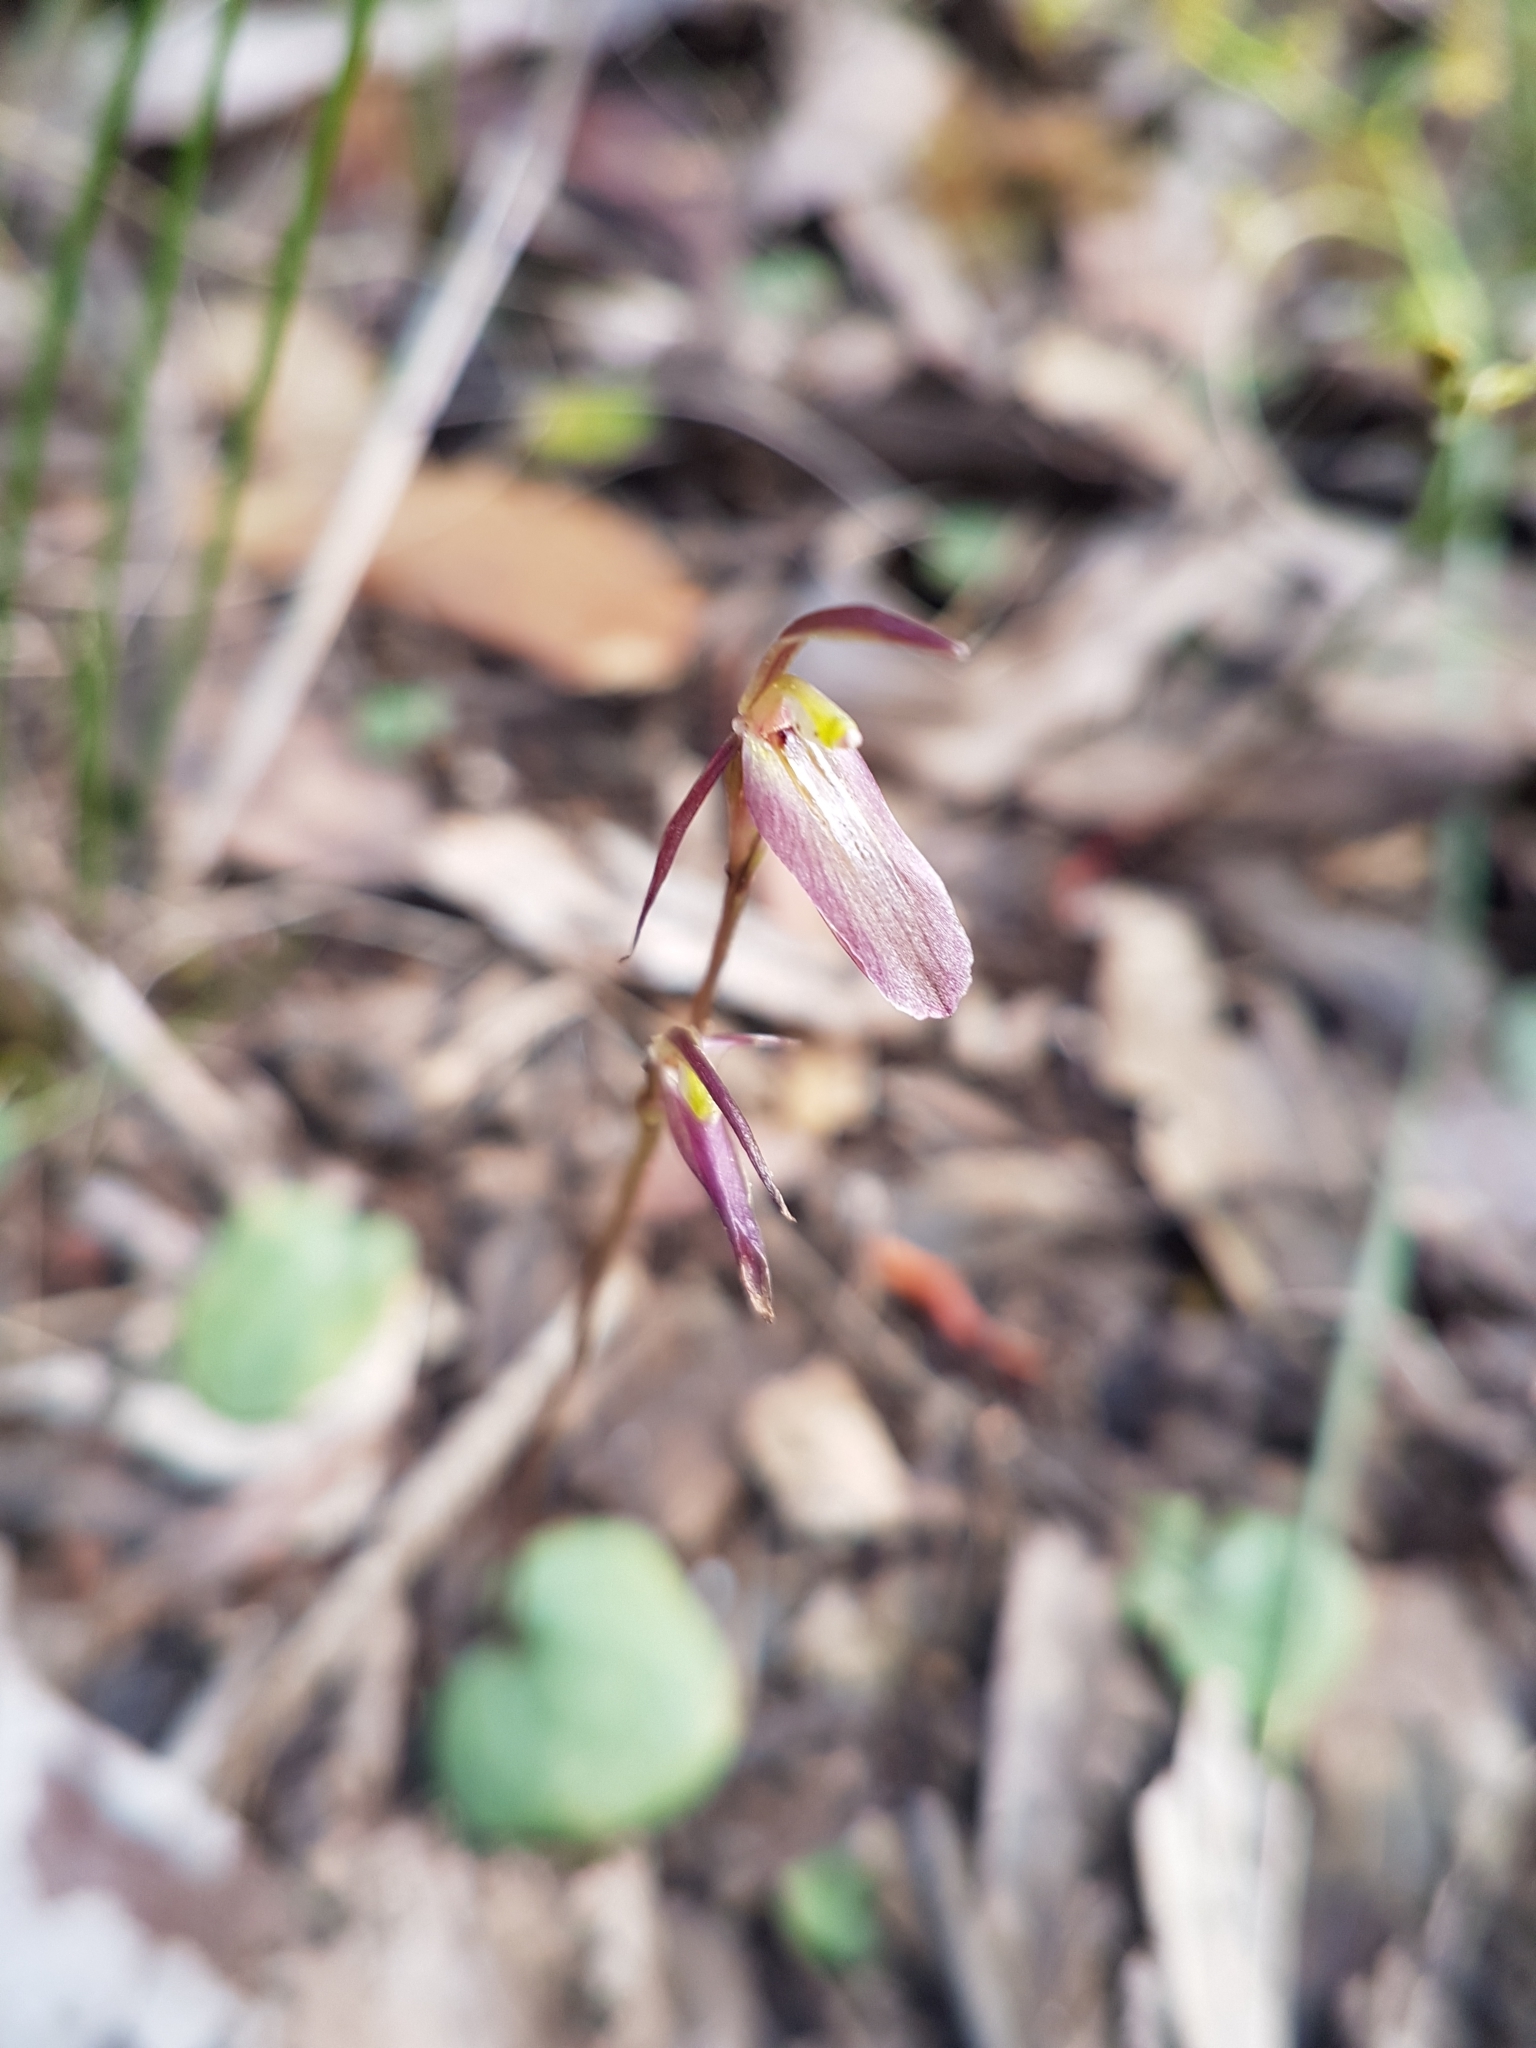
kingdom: Plantae
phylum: Tracheophyta
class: Liliopsida
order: Asparagales
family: Orchidaceae
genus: Cyrtostylis
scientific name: Cyrtostylis reniformis
